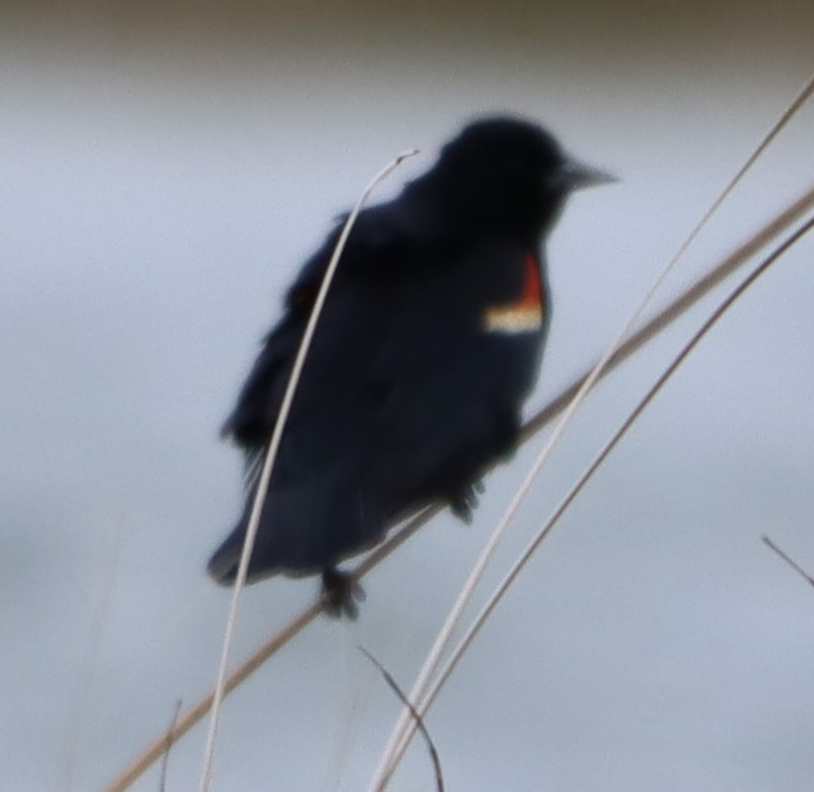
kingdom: Animalia
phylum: Chordata
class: Aves
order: Passeriformes
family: Icteridae
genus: Agelaius
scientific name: Agelaius phoeniceus
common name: Red-winged blackbird
